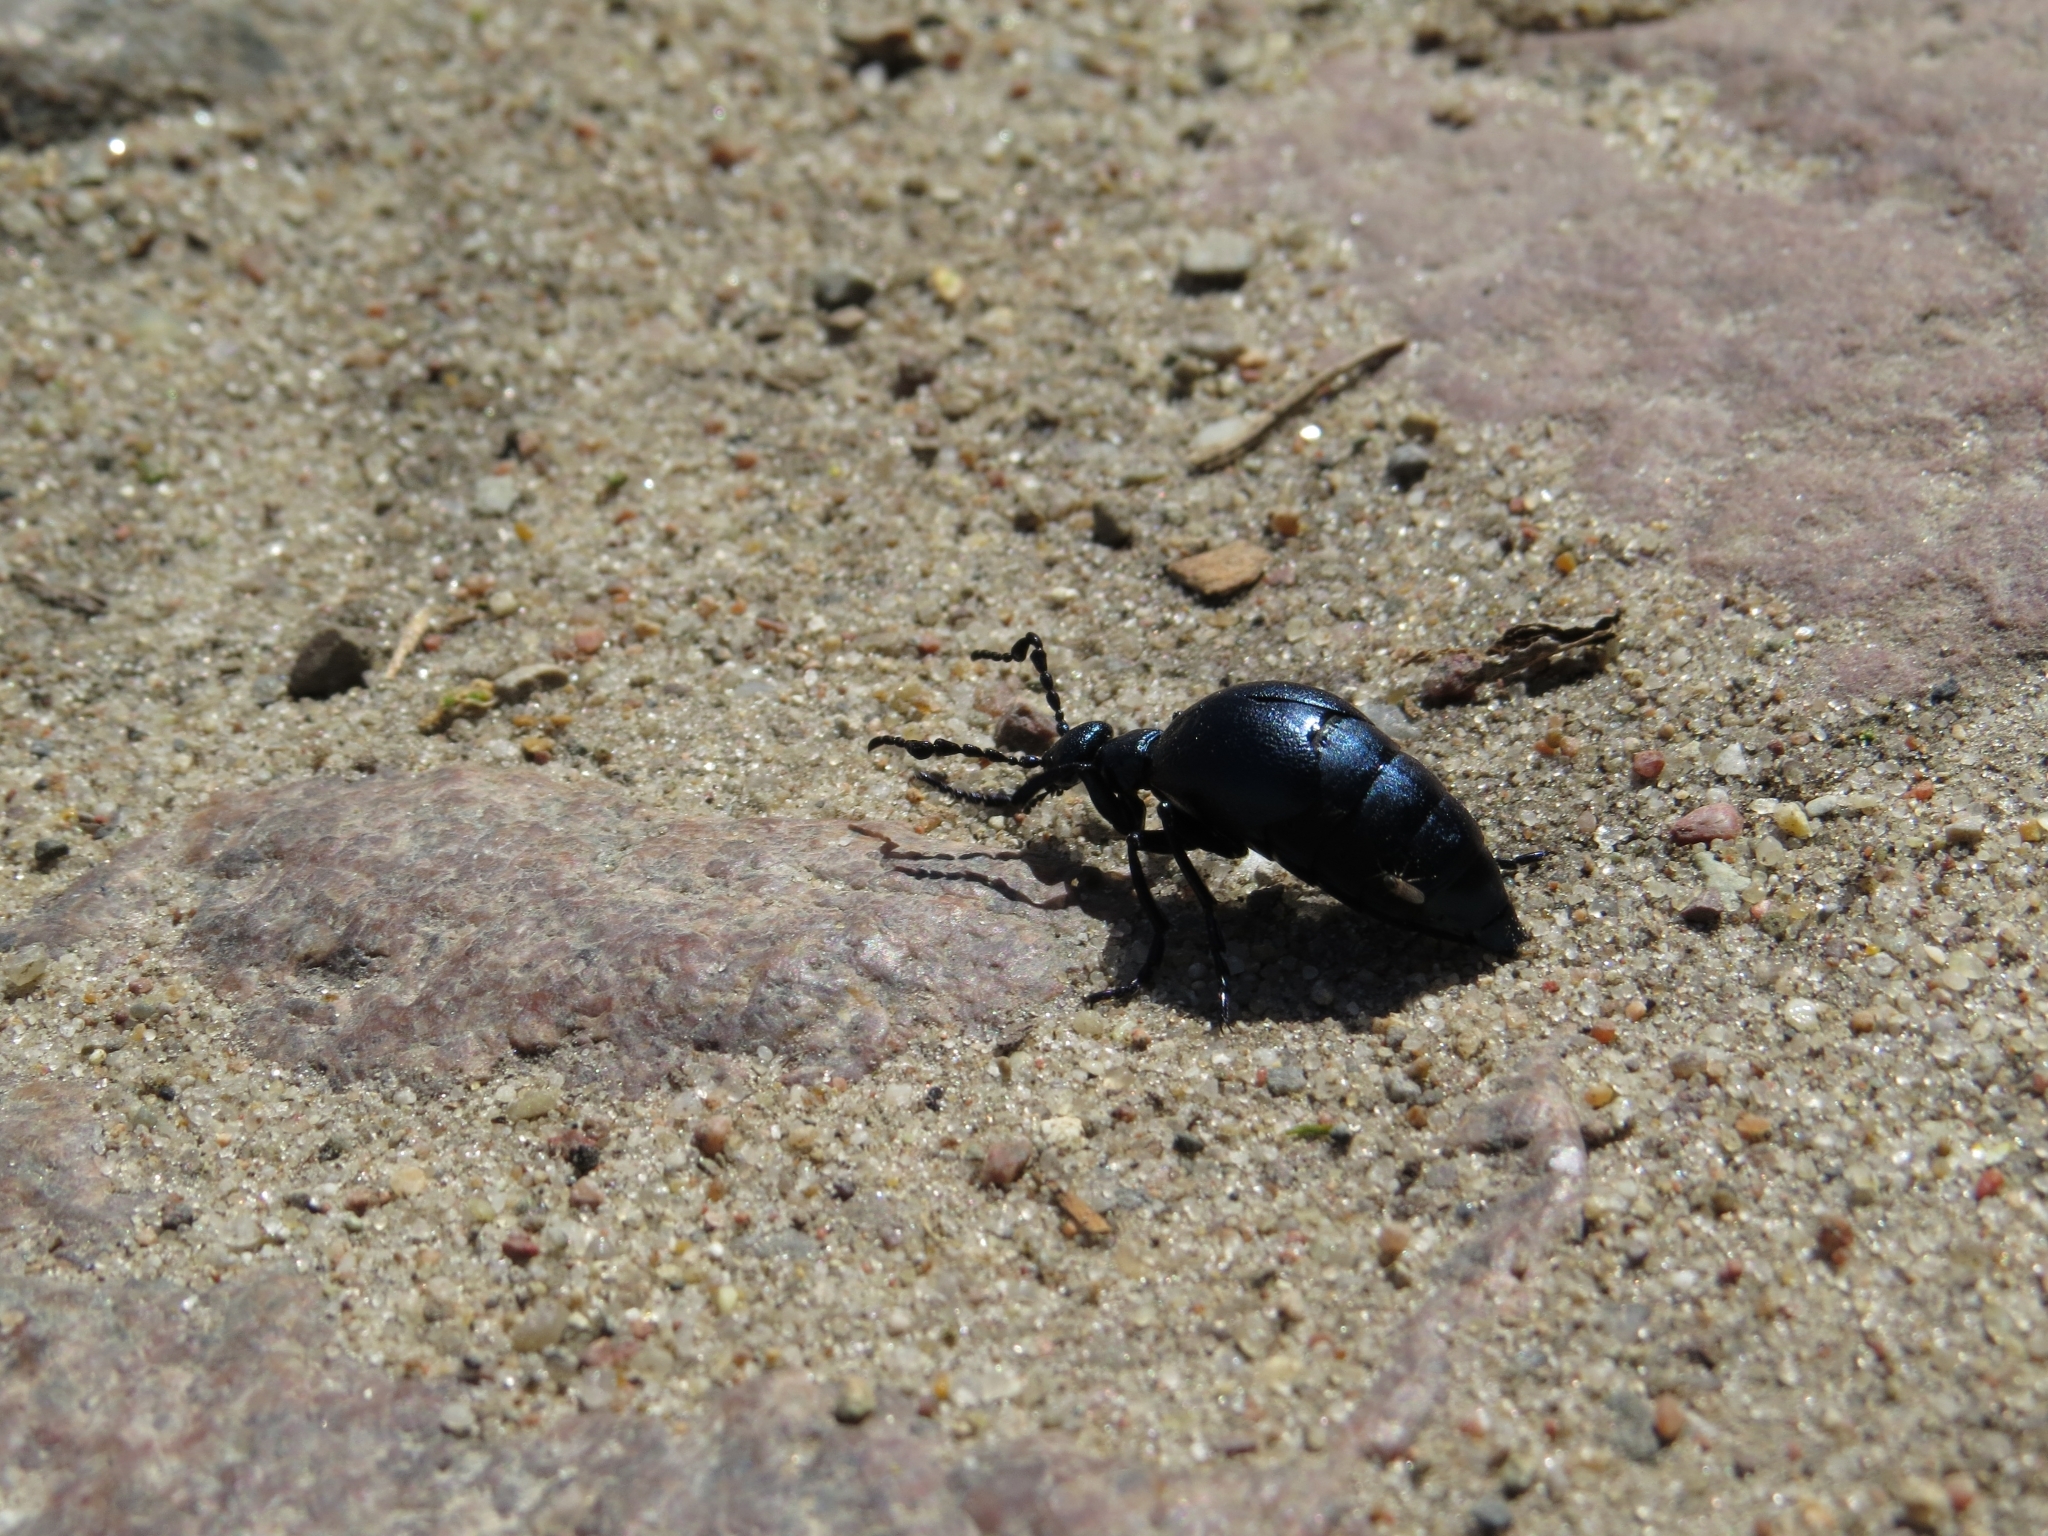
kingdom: Animalia
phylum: Arthropoda
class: Insecta
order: Coleoptera
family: Meloidae
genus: Meloe
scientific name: Meloe violaceus
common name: Violet oil-beetle
